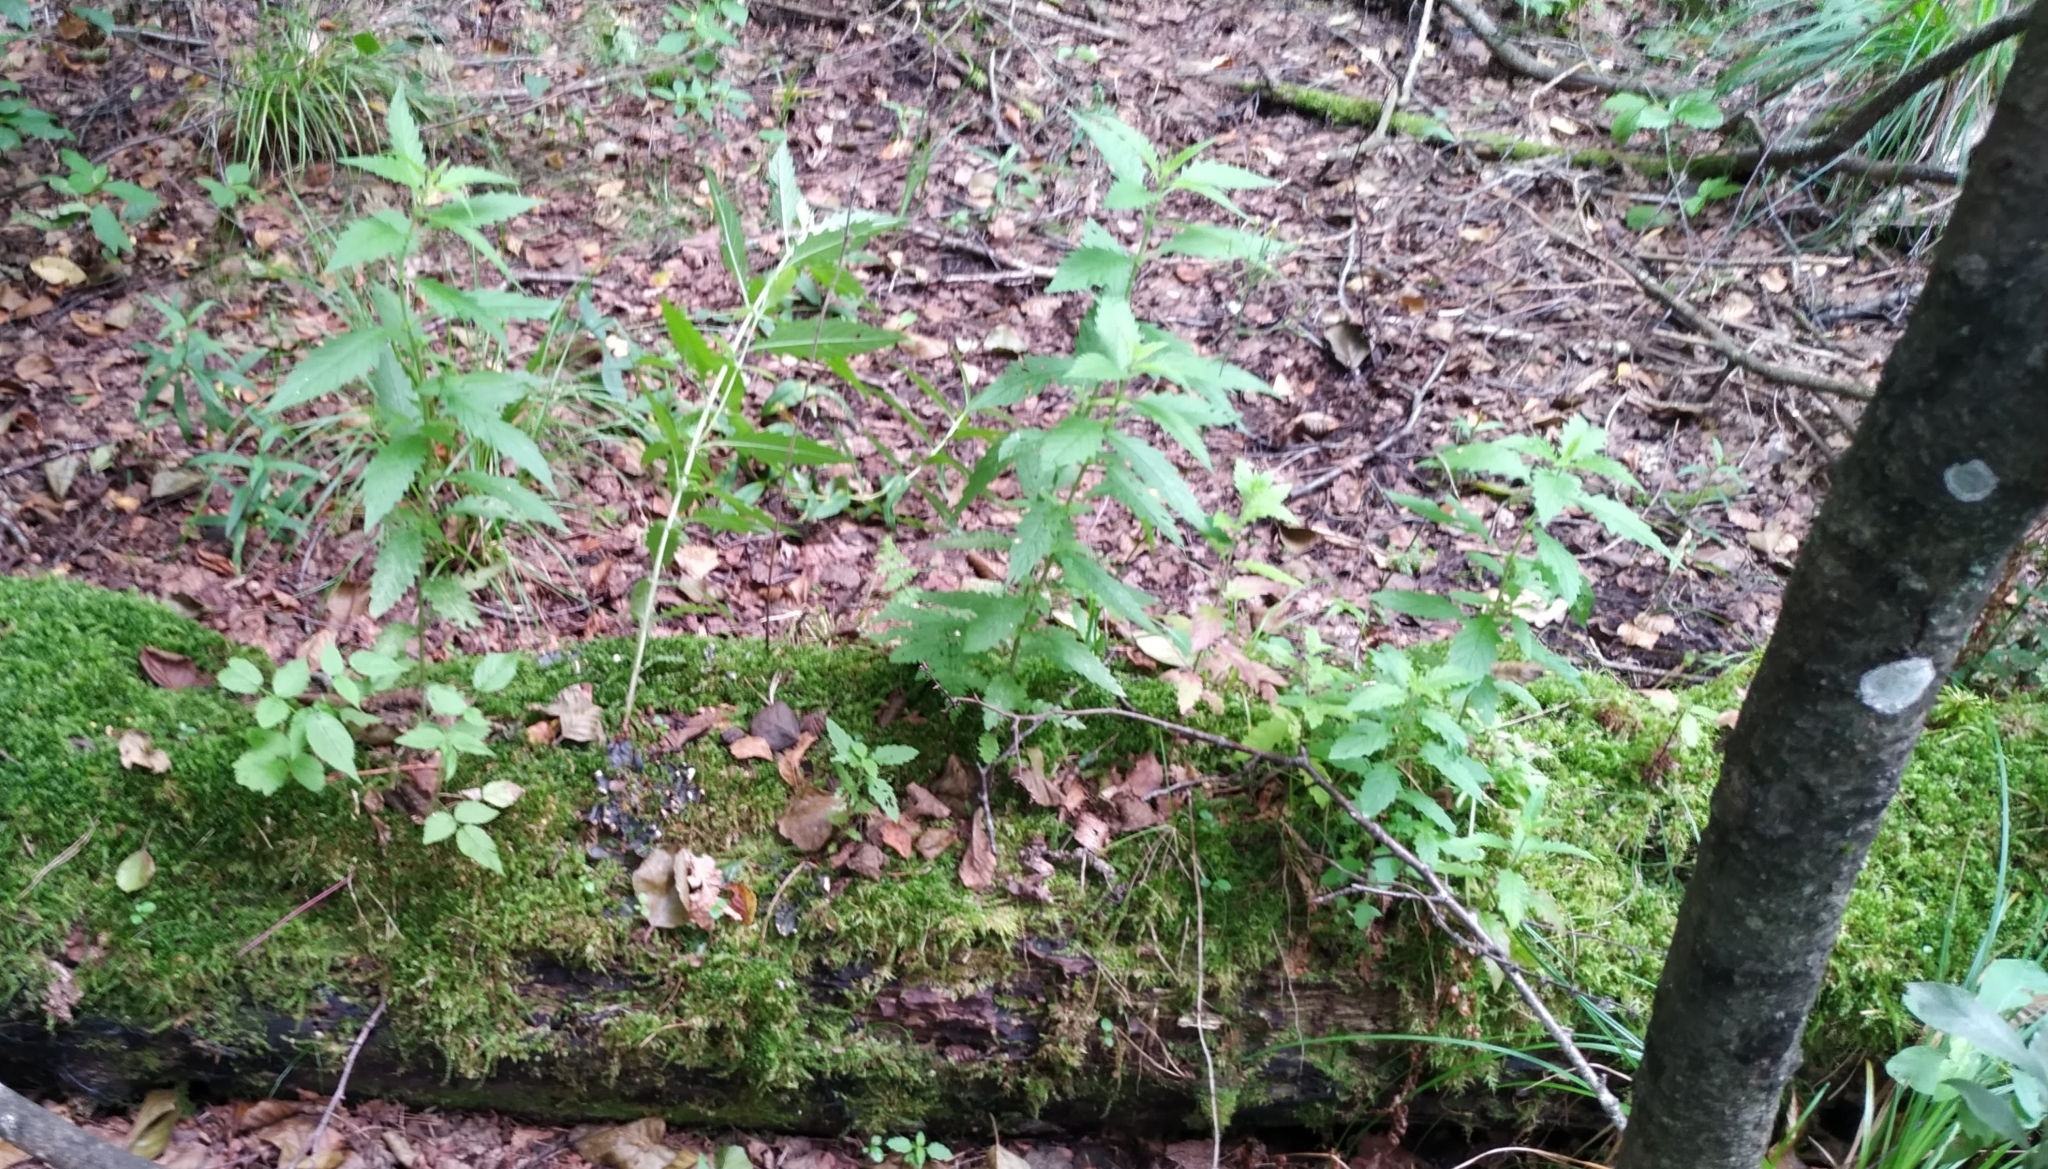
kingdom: Plantae
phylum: Tracheophyta
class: Magnoliopsida
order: Lamiales
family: Lamiaceae
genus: Lycopus
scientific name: Lycopus europaeus
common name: European bugleweed
